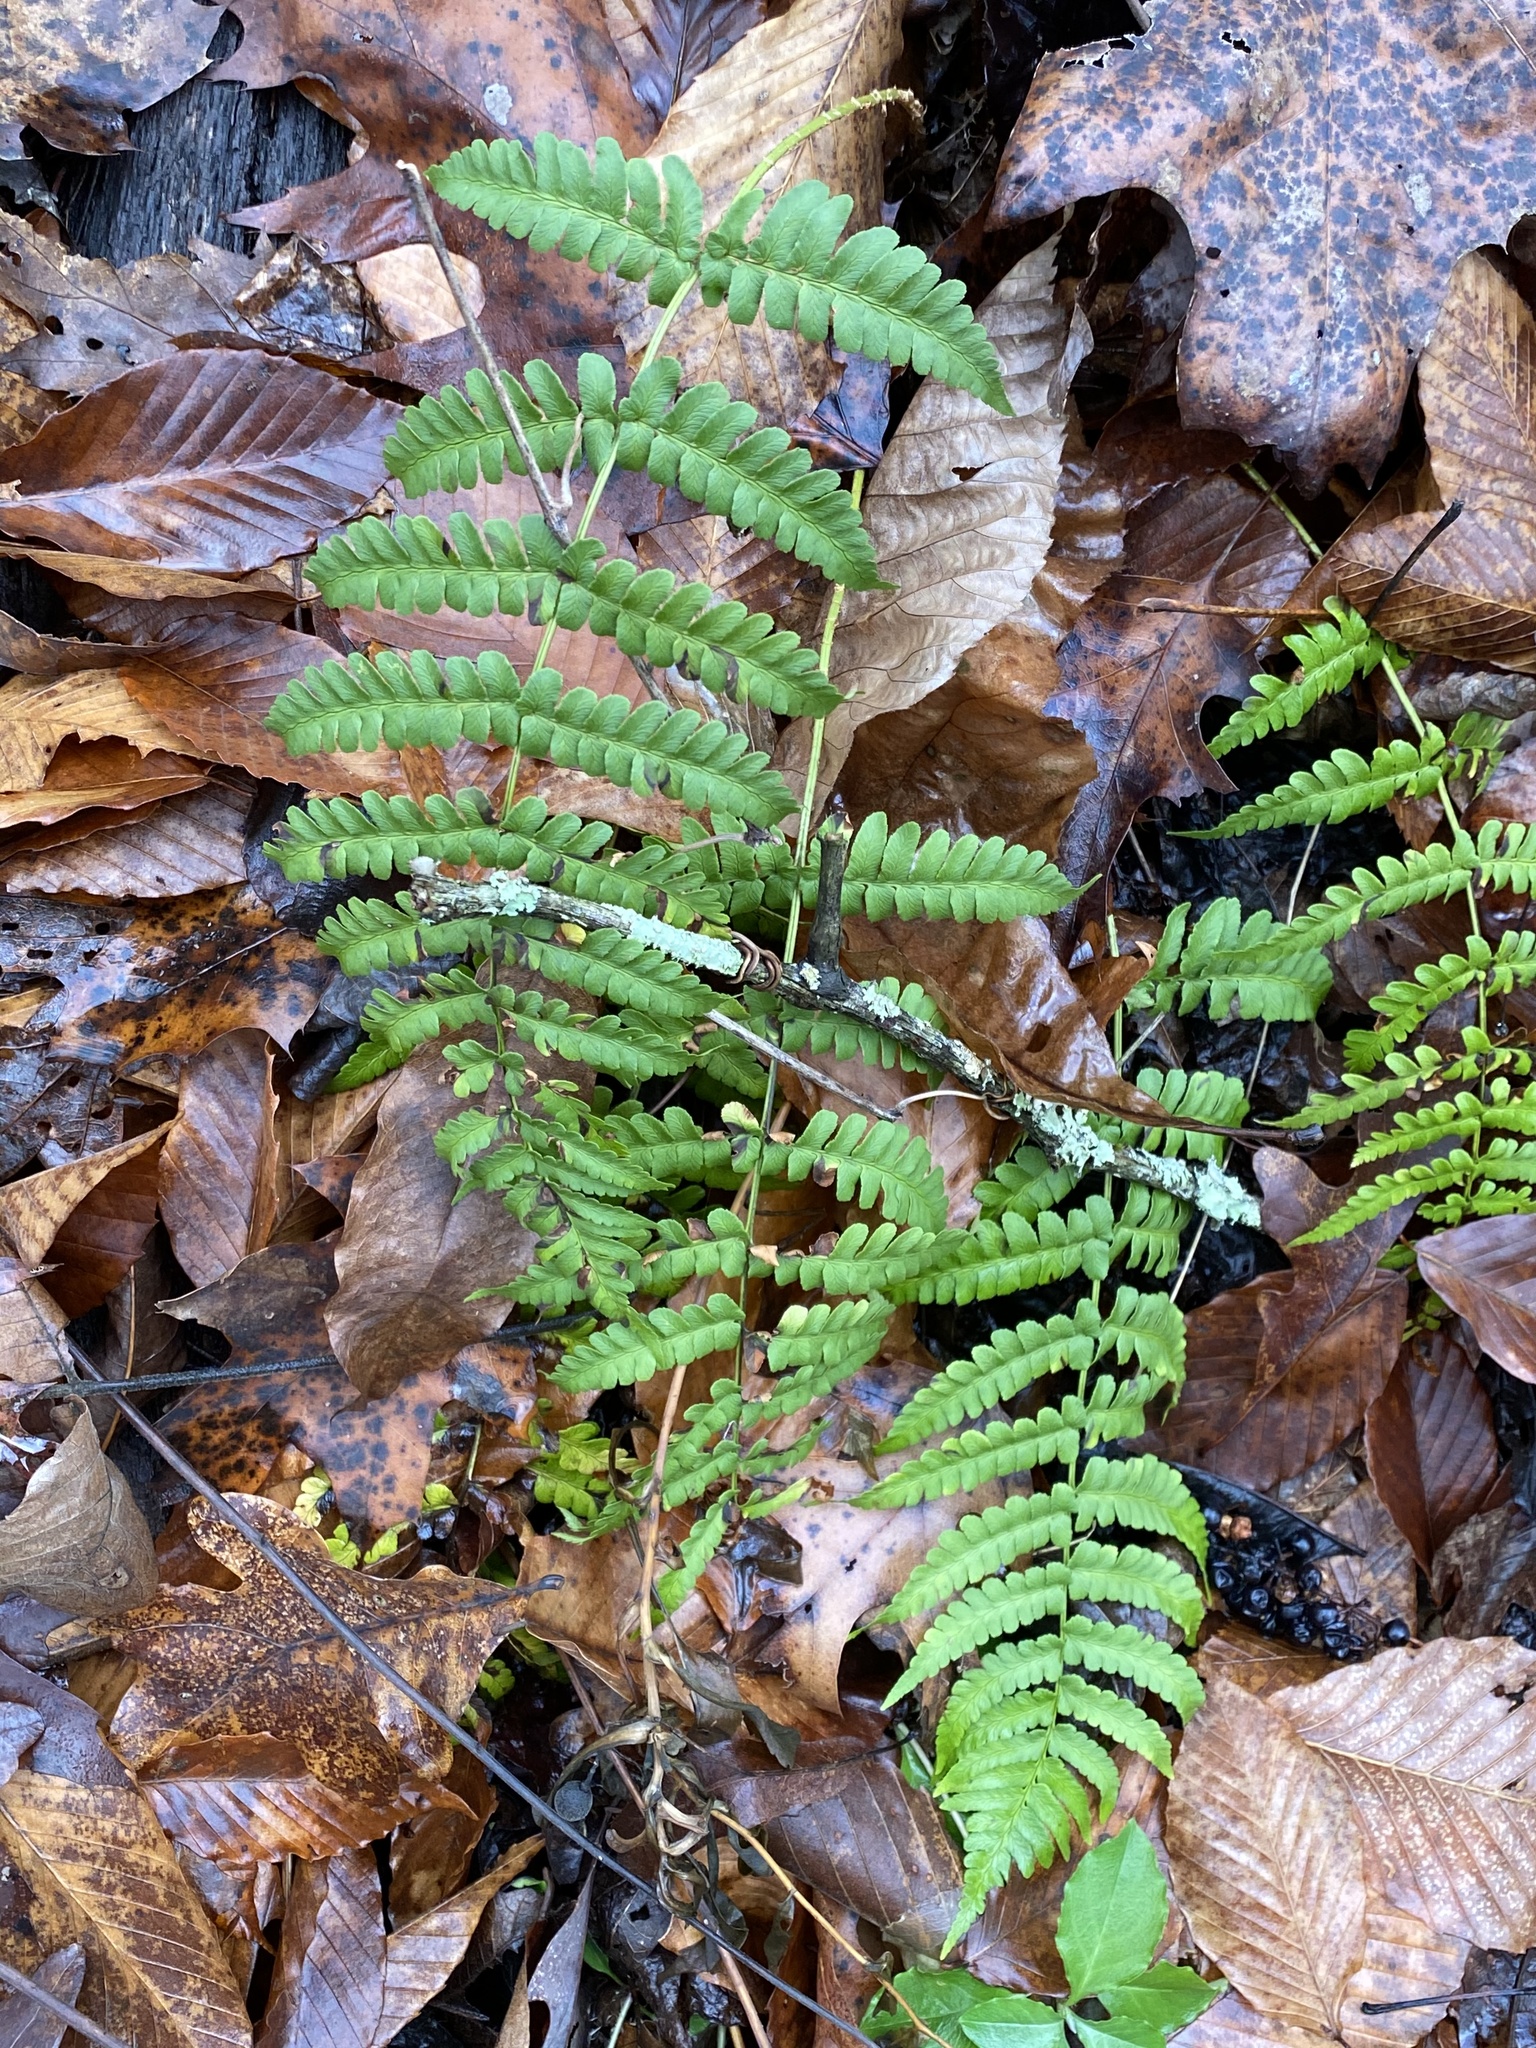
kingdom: Plantae
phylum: Tracheophyta
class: Polypodiopsida
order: Polypodiales
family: Dryopteridaceae
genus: Dryopteris
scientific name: Dryopteris marginalis
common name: Marginal wood fern
